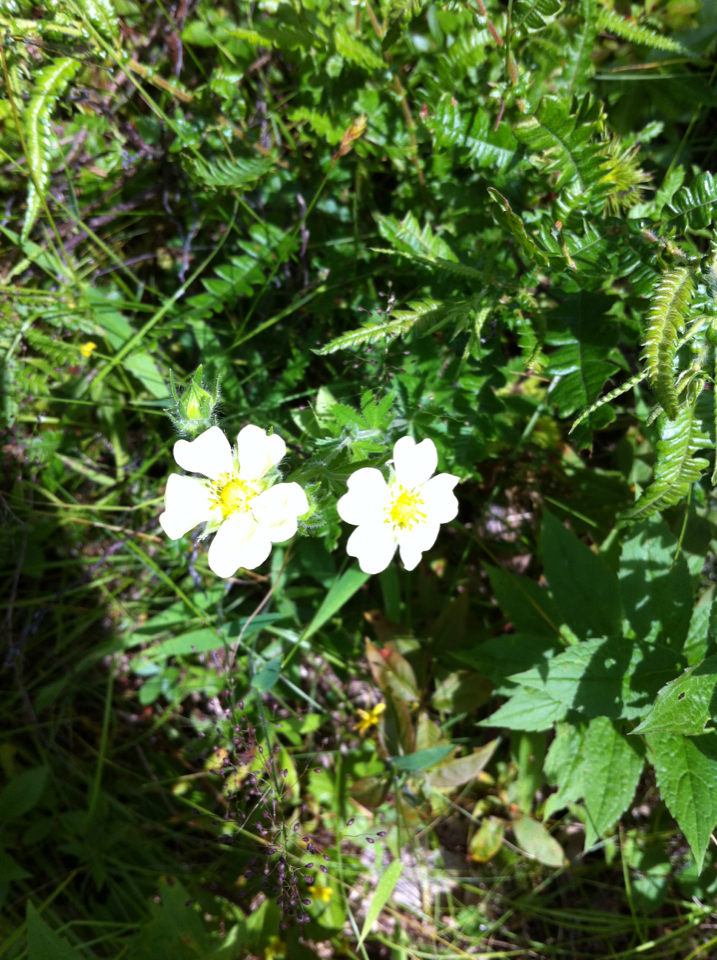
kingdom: Plantae
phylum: Tracheophyta
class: Magnoliopsida
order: Rosales
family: Rosaceae
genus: Potentilla
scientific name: Potentilla recta
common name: Sulphur cinquefoil
